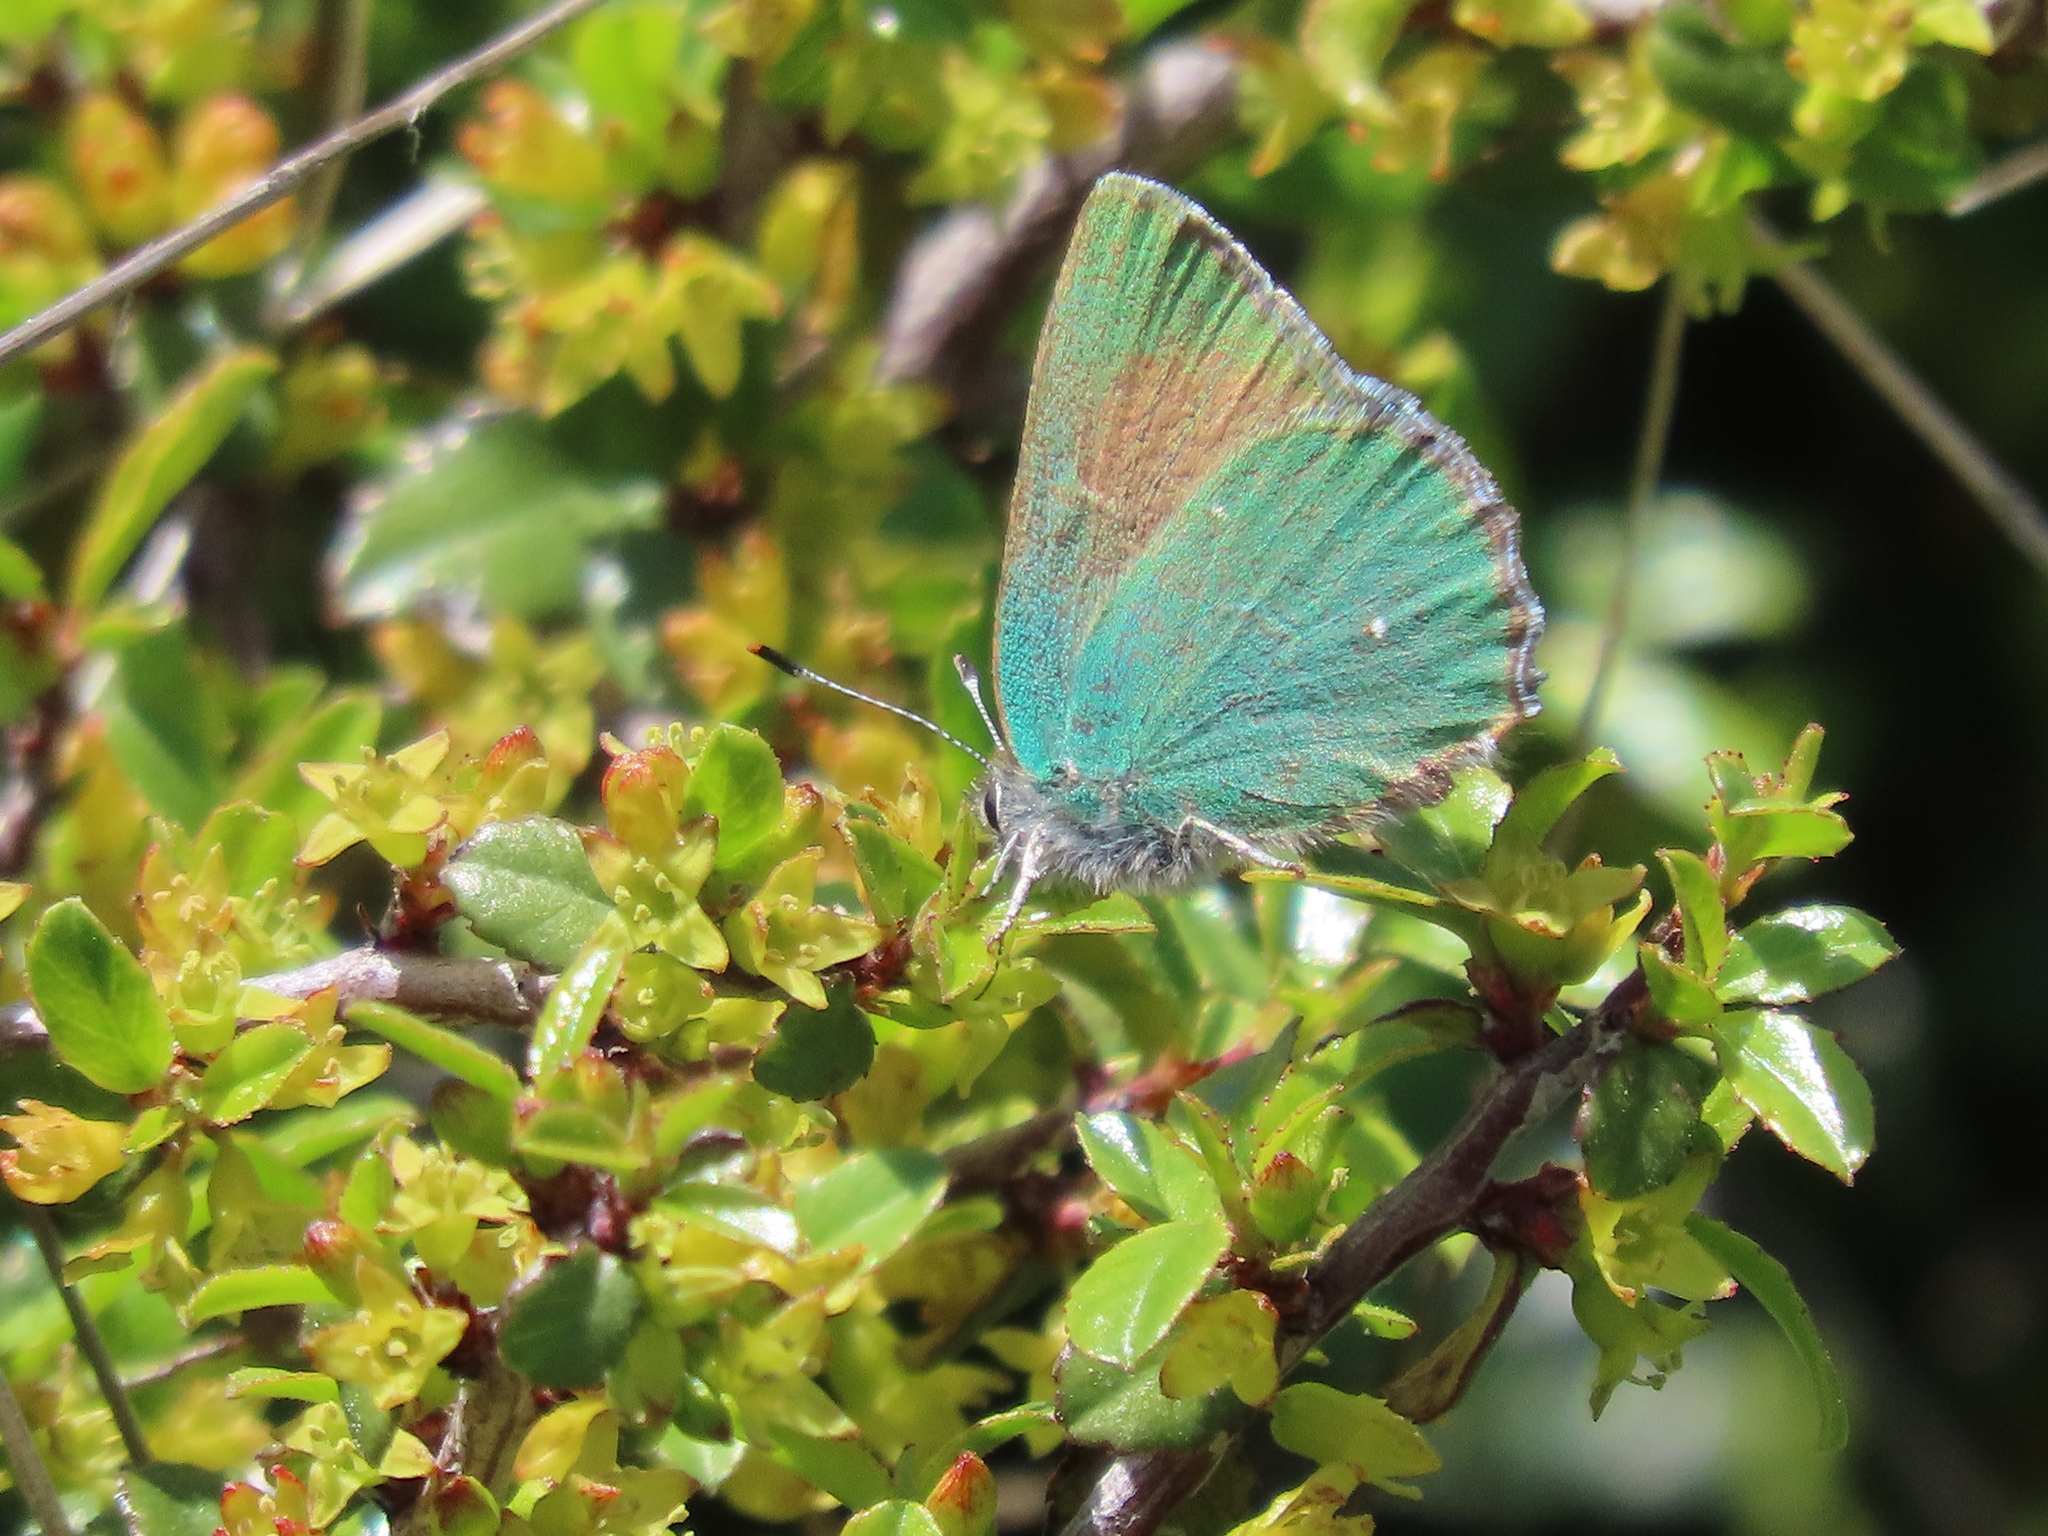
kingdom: Animalia
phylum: Arthropoda
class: Insecta
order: Lepidoptera
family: Lycaenidae
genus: Callophrys
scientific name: Callophrys dumetorum
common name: Bramble hairstreak
